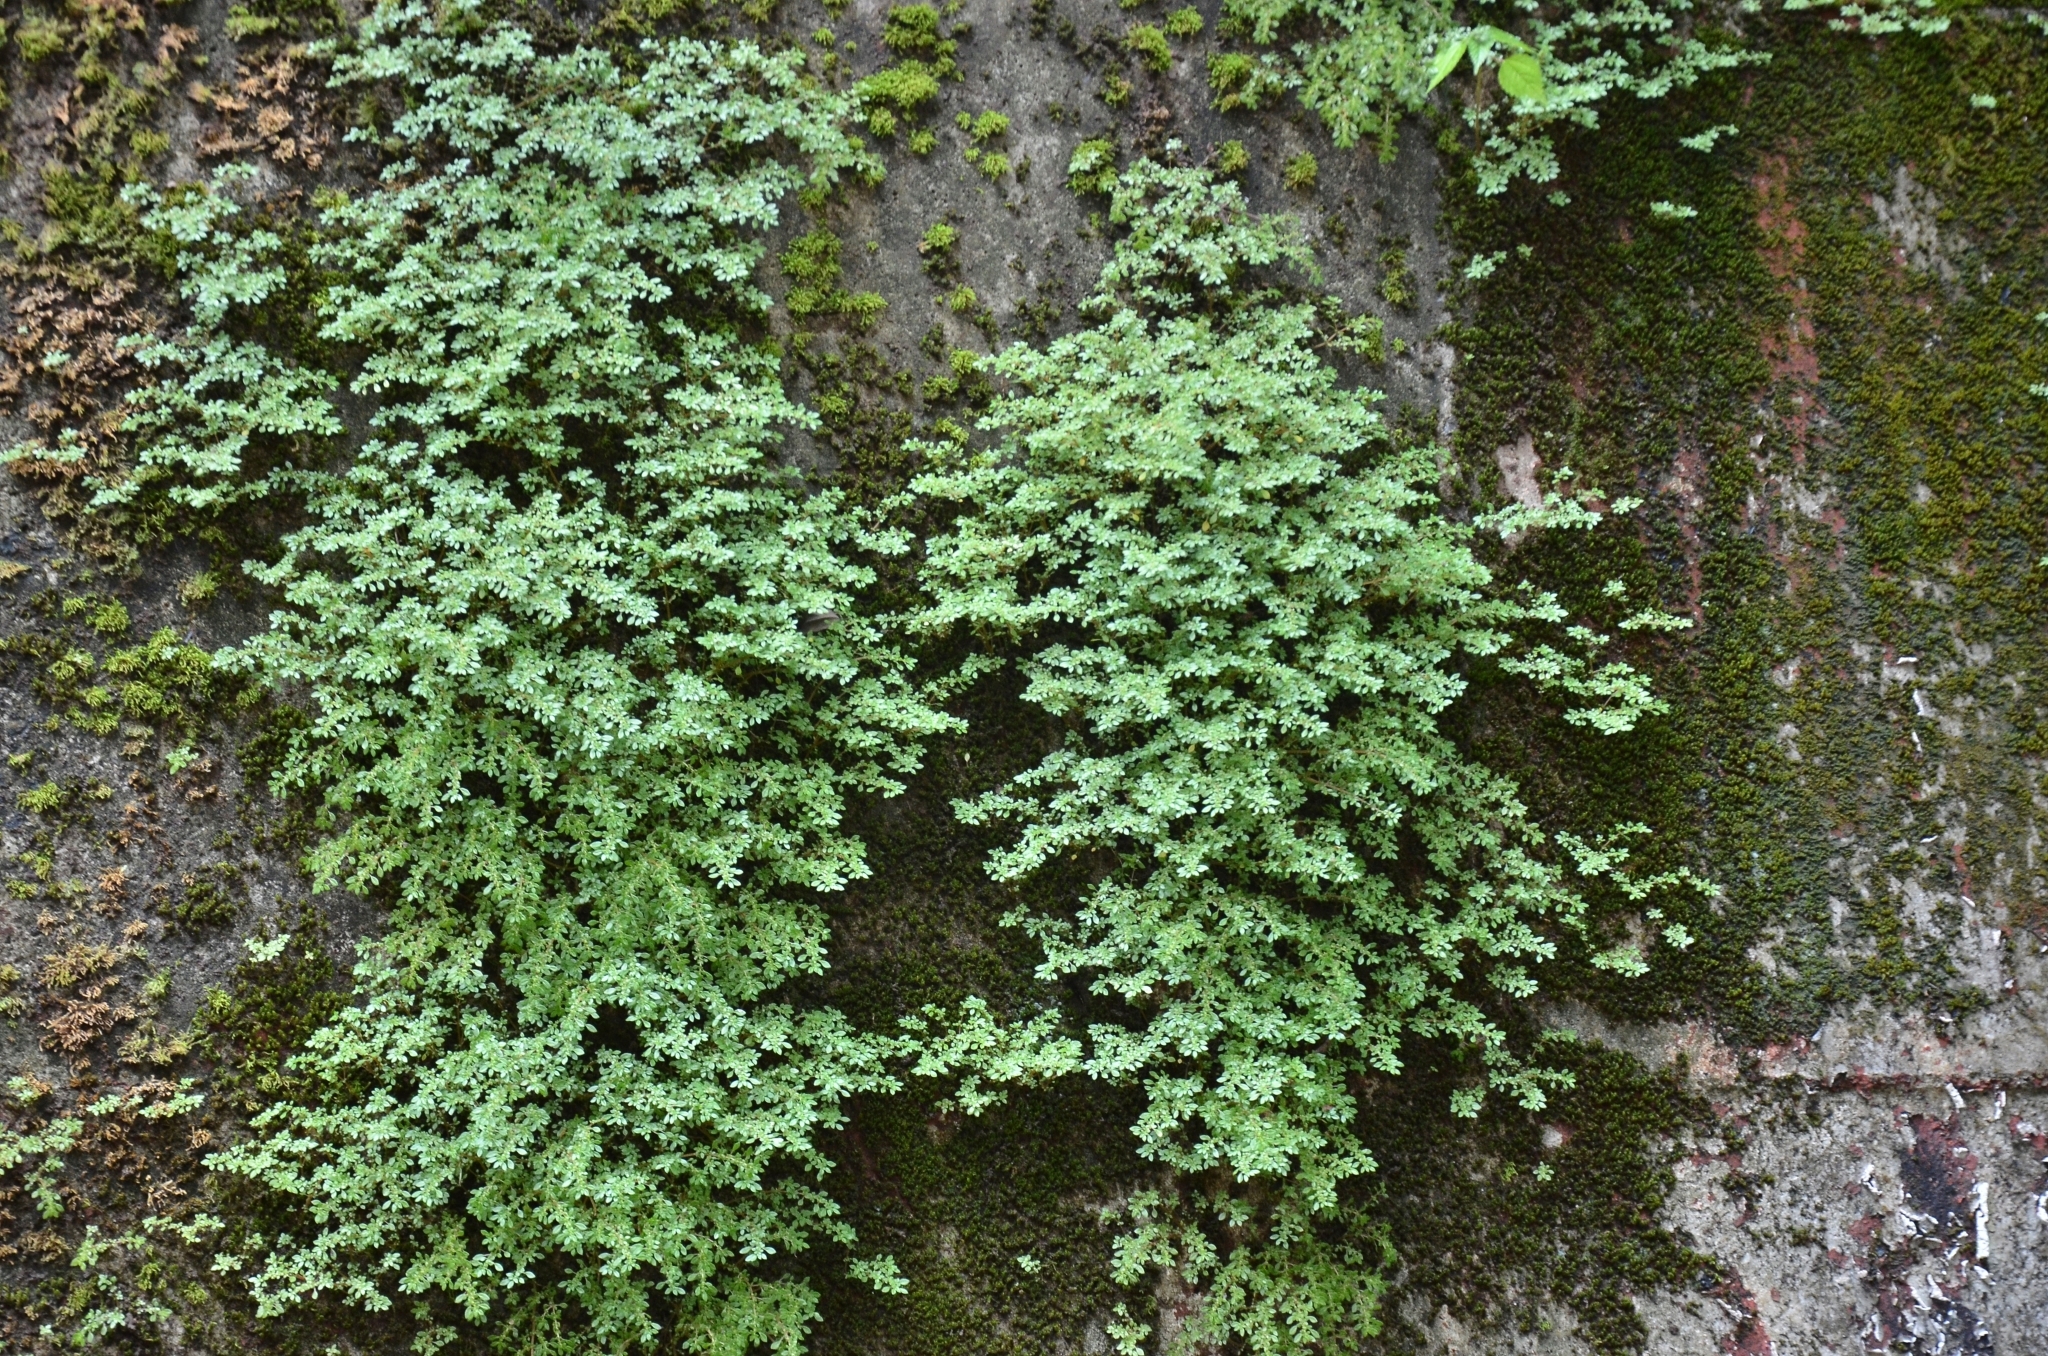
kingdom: Plantae
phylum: Tracheophyta
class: Magnoliopsida
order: Rosales
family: Urticaceae
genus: Pilea
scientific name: Pilea microphylla
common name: Artillery-plant
